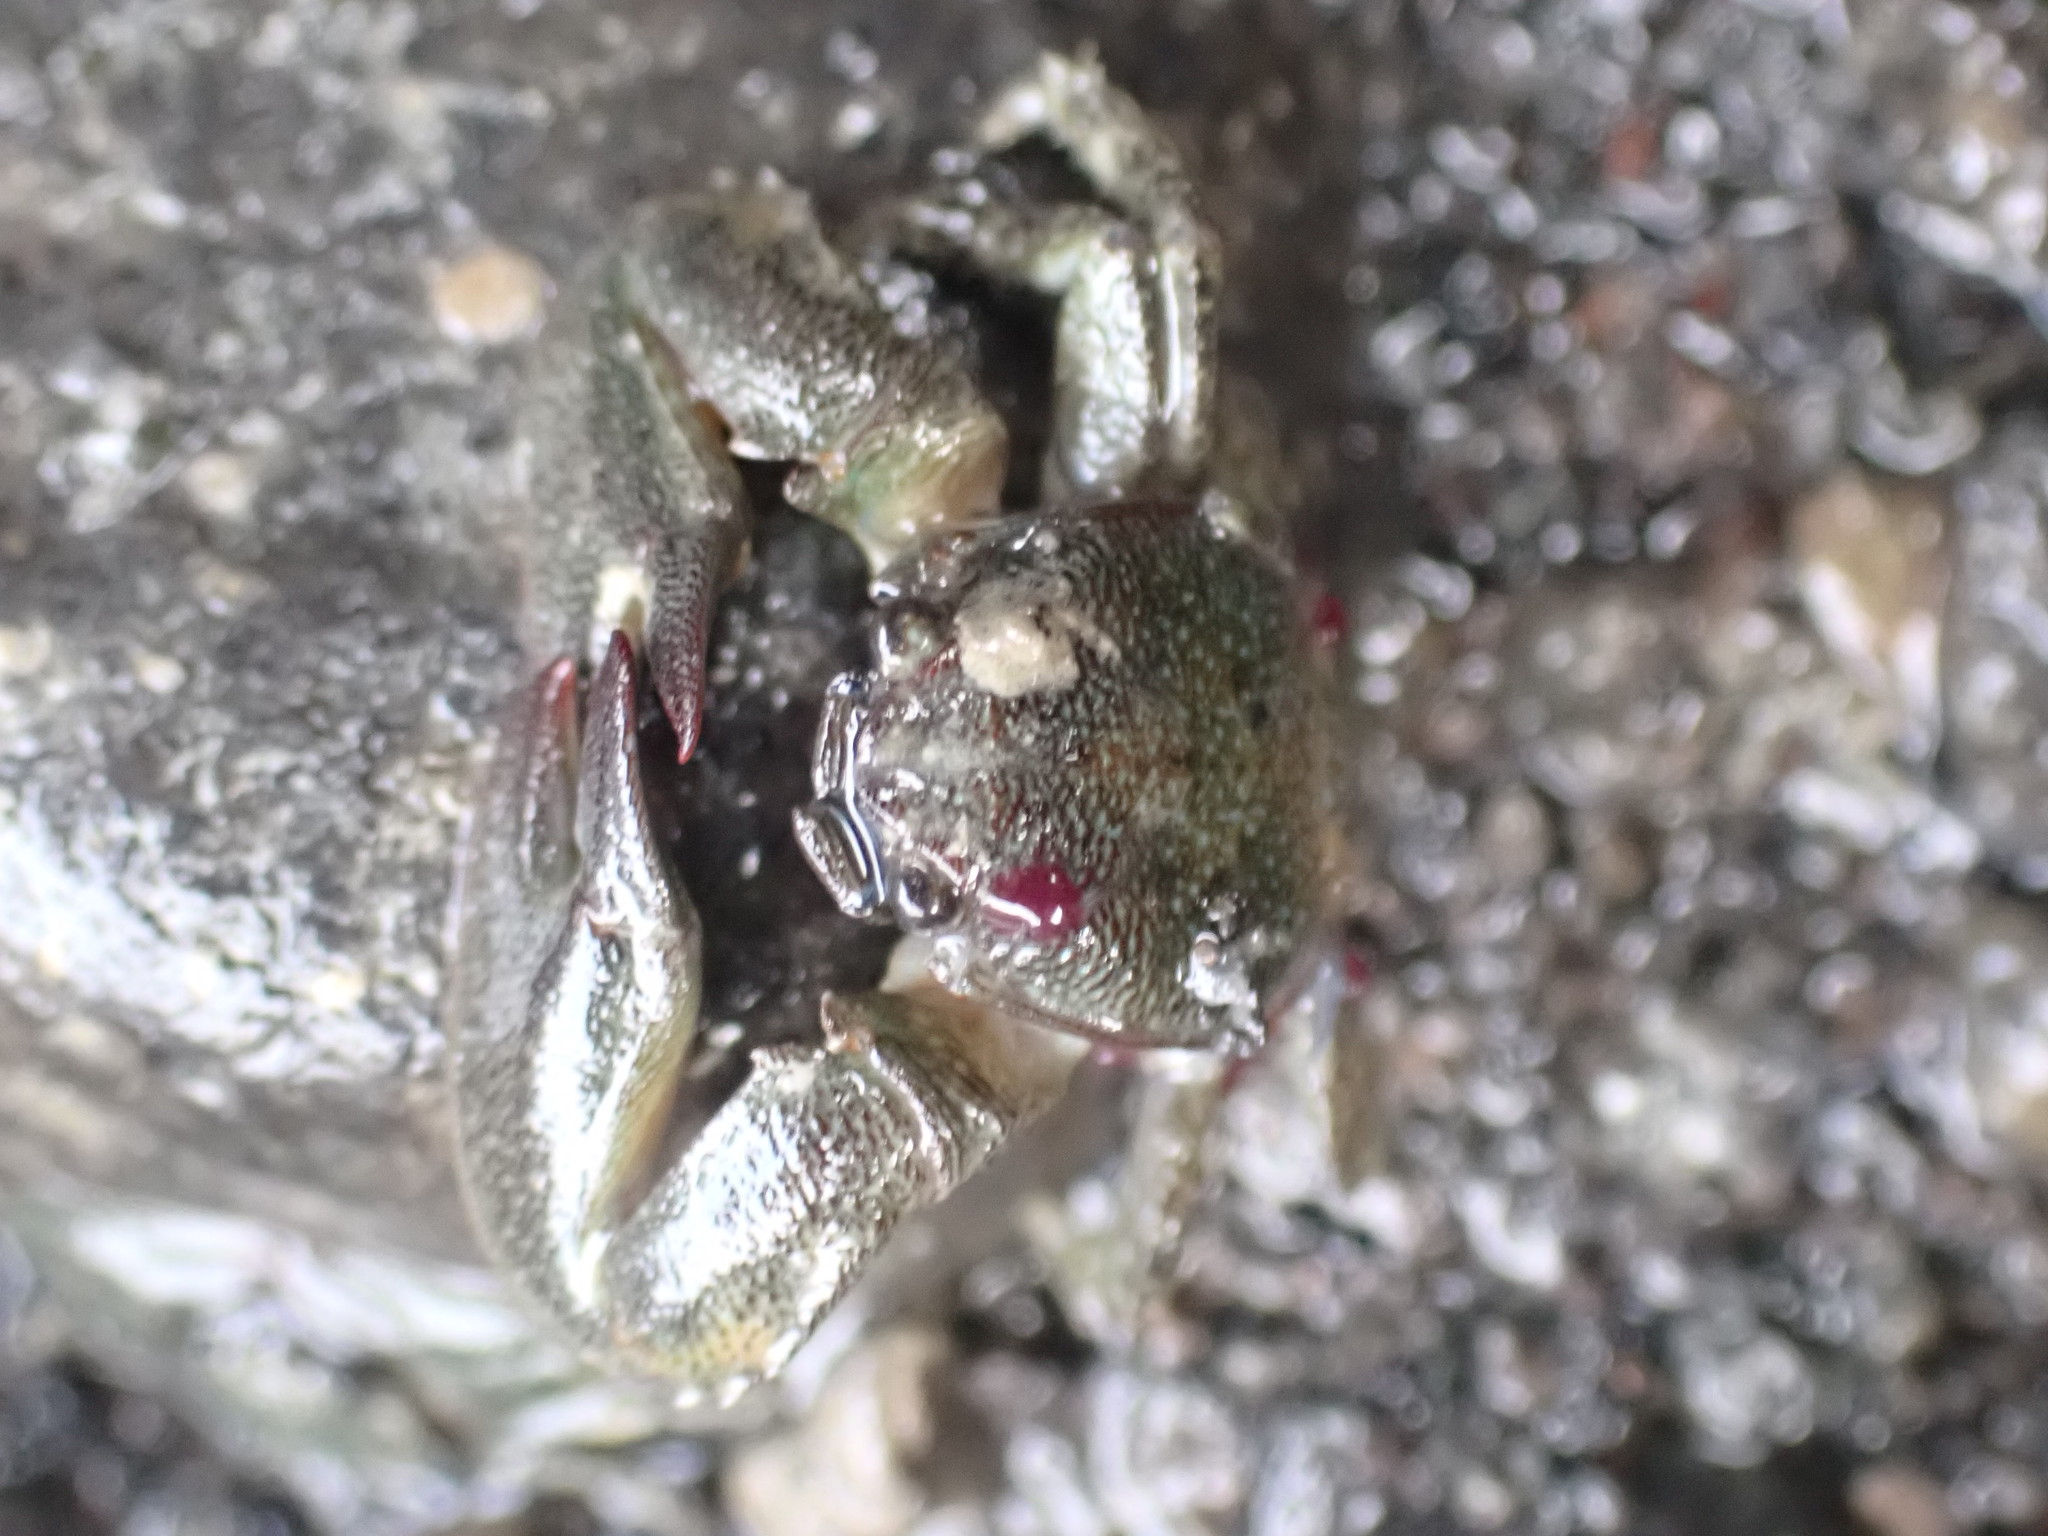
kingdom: Animalia
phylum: Arthropoda
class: Malacostraca
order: Decapoda
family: Porcellanidae
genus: Petrolisthes
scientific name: Petrolisthes elongatus
